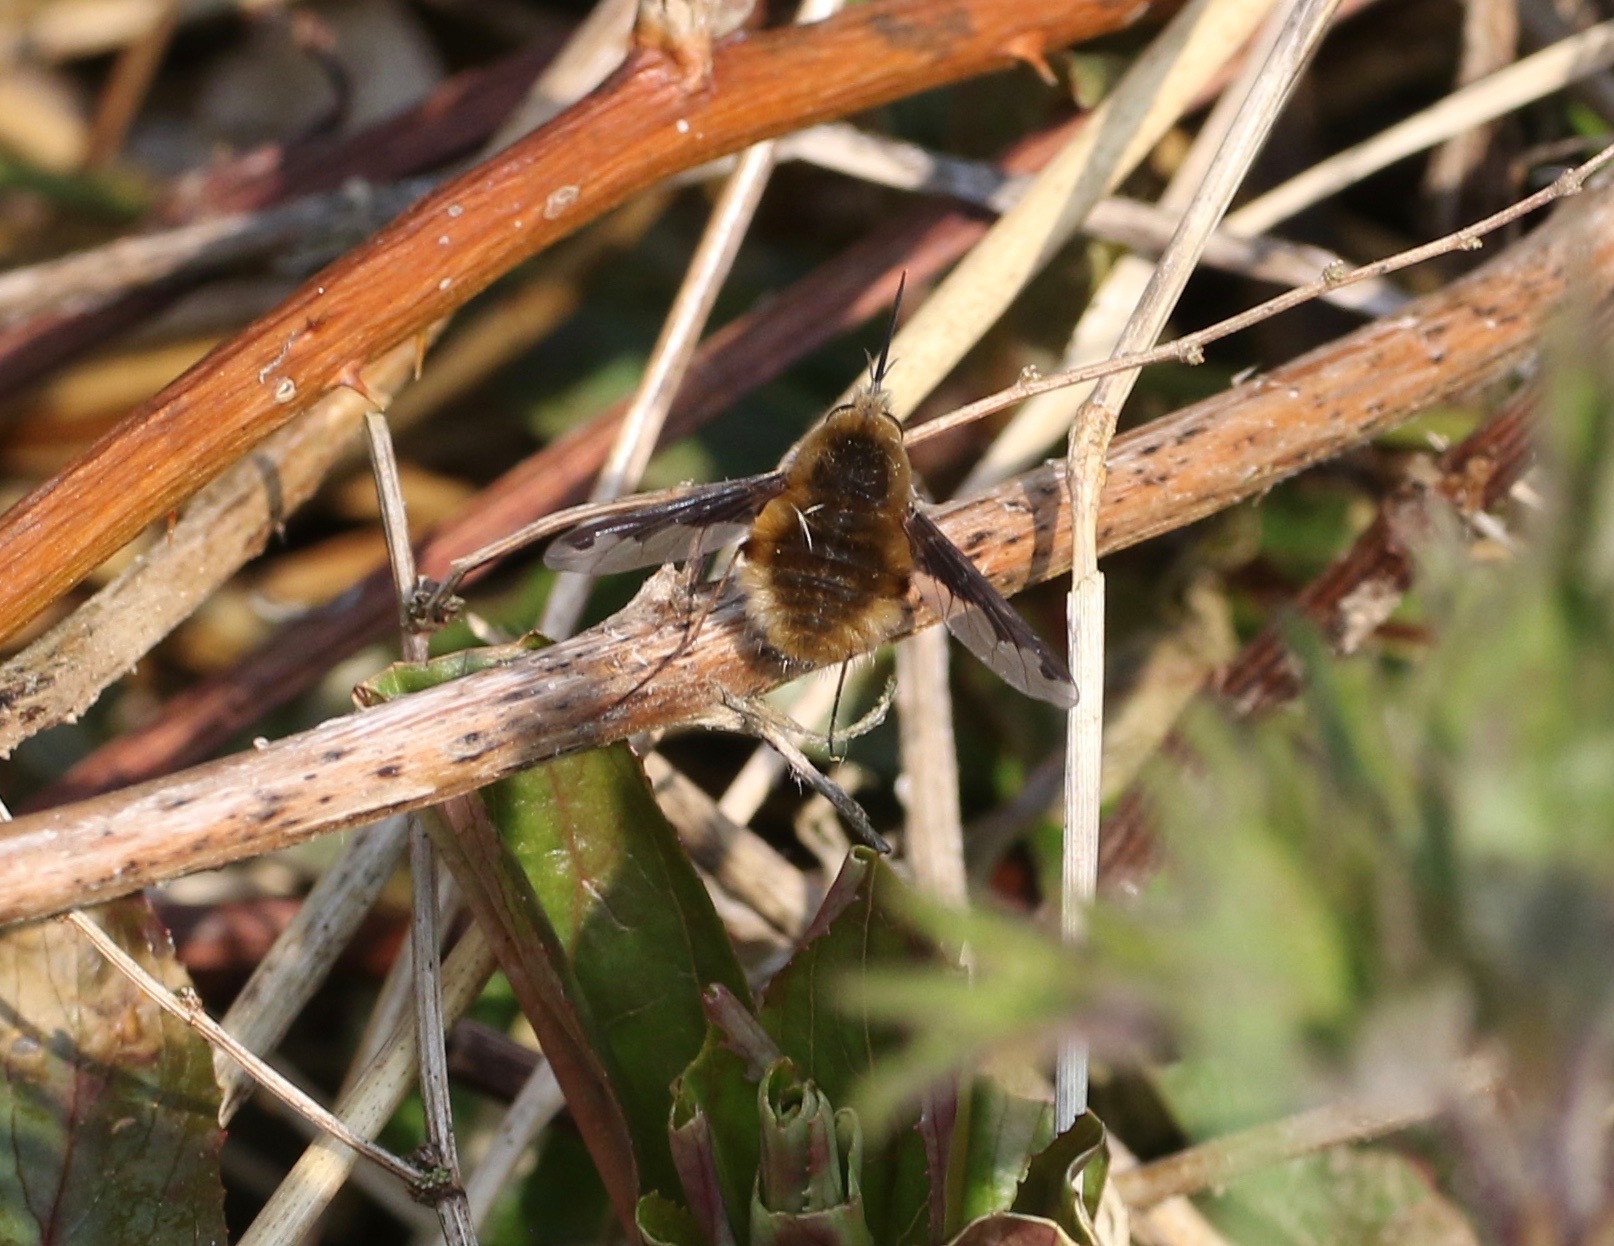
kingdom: Animalia
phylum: Arthropoda
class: Insecta
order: Diptera
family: Bombyliidae
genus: Bombylius
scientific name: Bombylius major
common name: Bee fly
